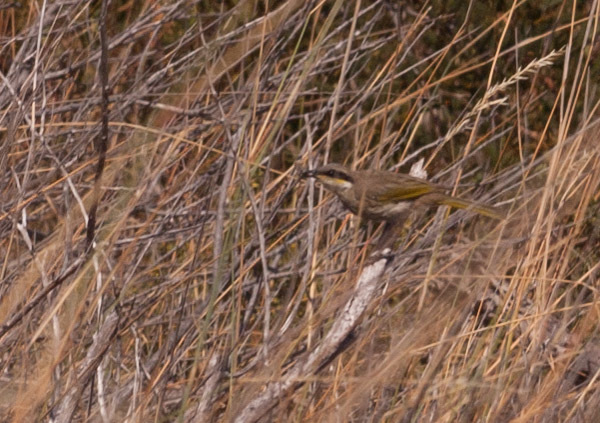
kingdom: Animalia
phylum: Chordata
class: Aves
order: Passeriformes
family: Meliphagidae
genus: Gavicalis
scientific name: Gavicalis virescens
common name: Singing honeyeater
